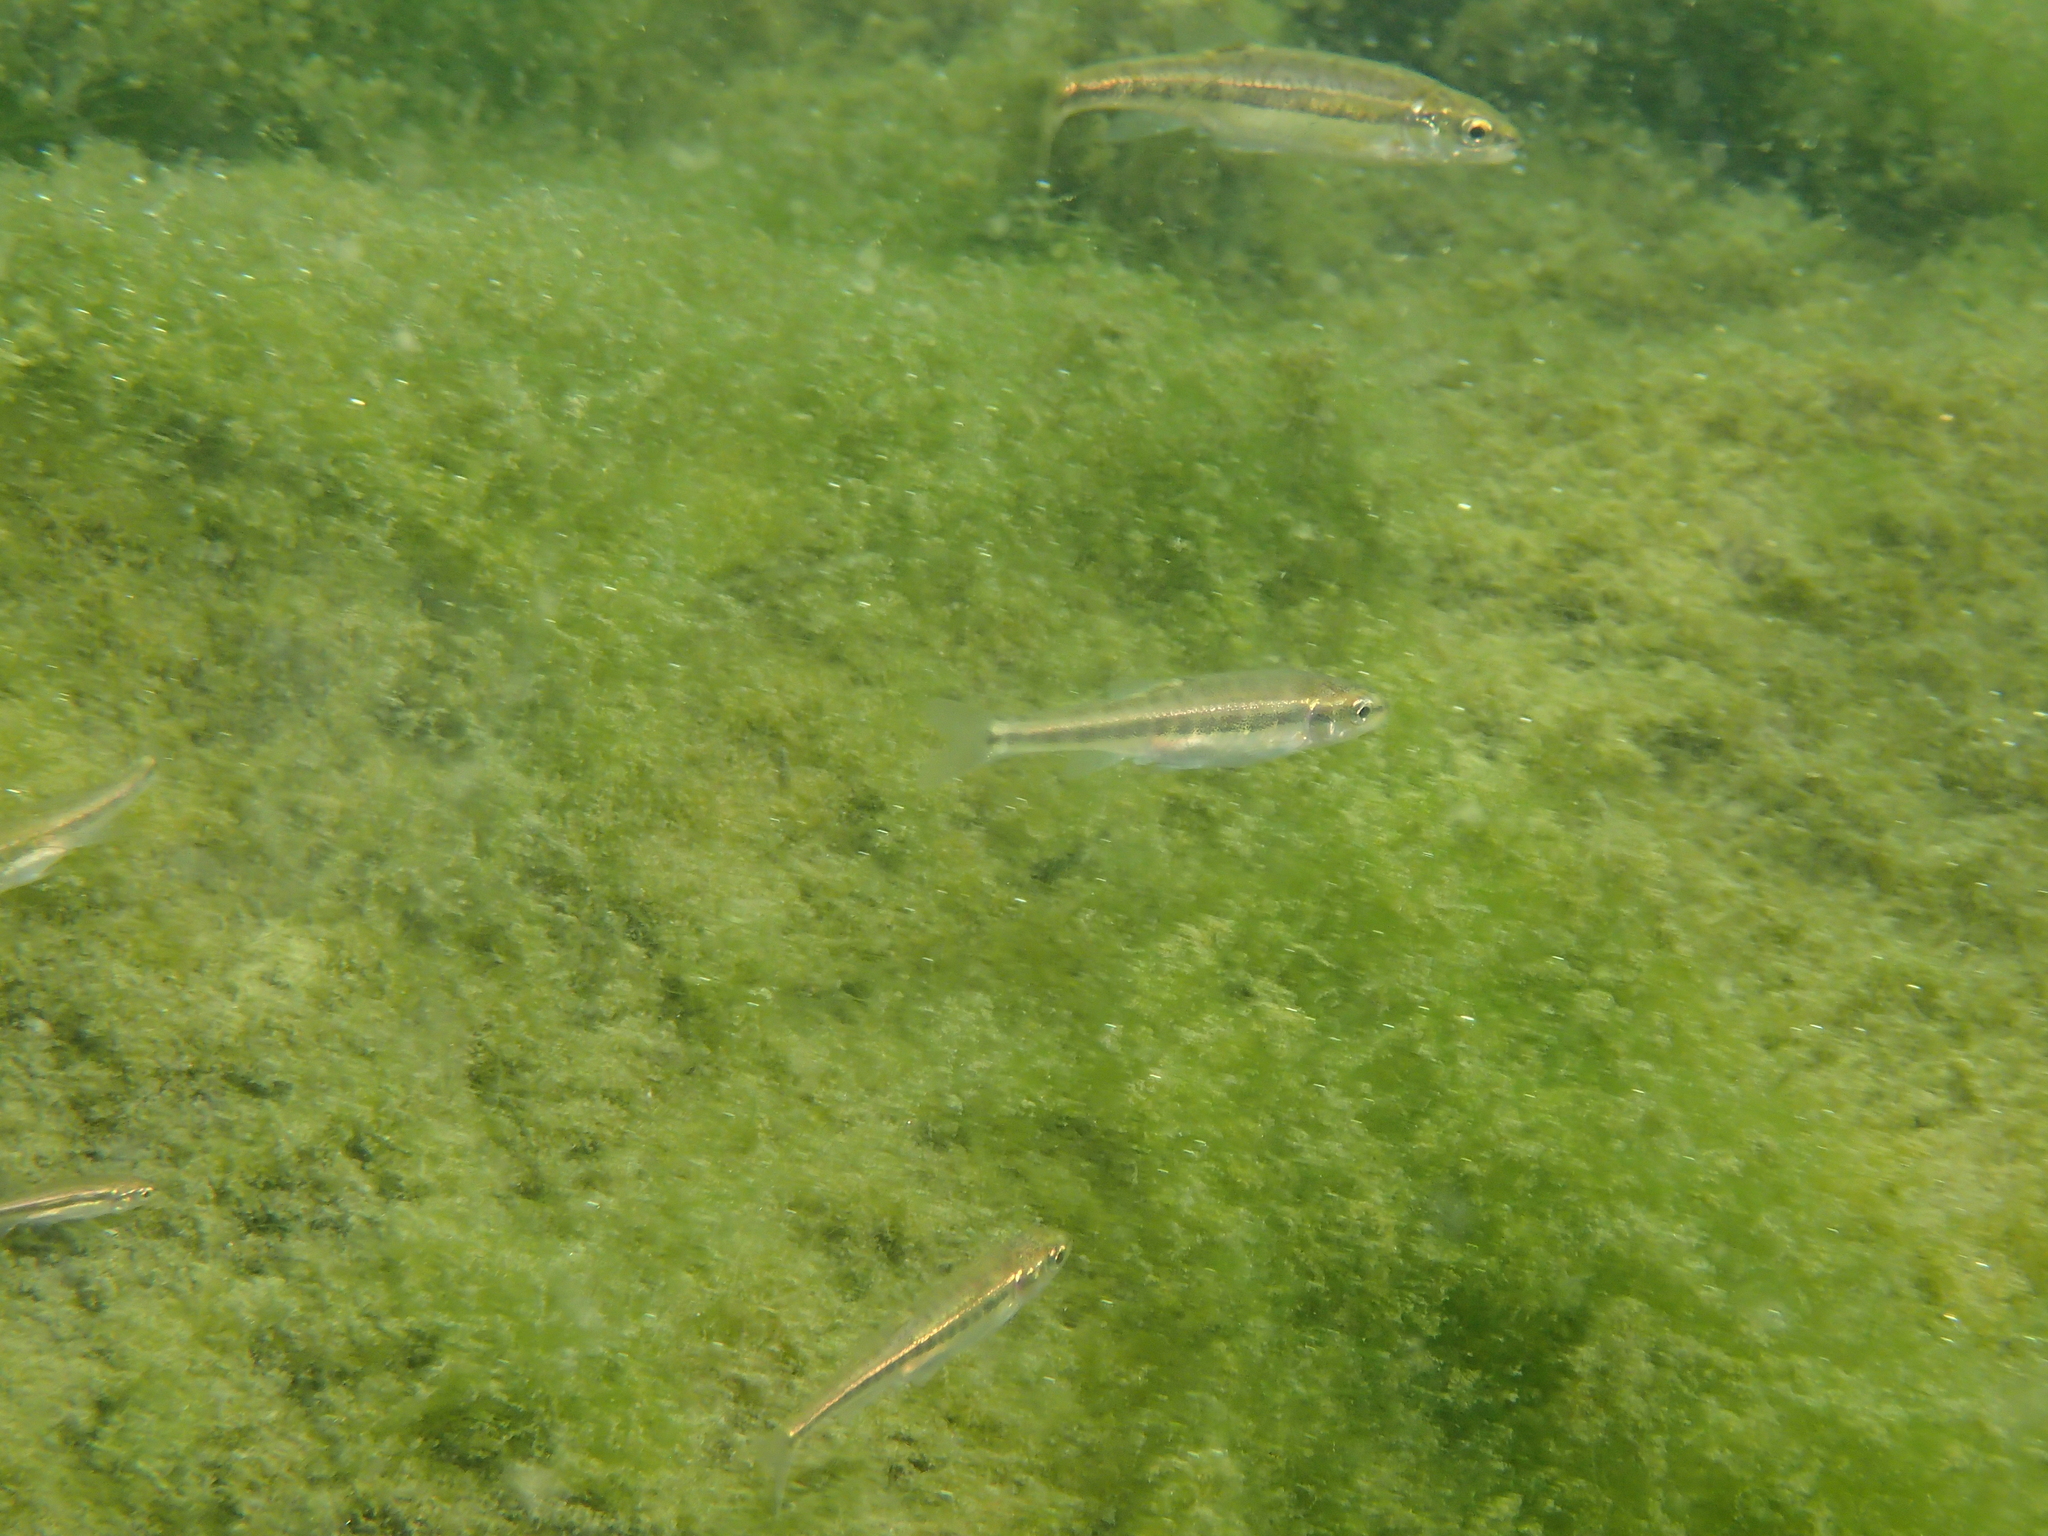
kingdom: Animalia
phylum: Chordata
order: Cypriniformes
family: Cyprinidae
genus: Phoxinus
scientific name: Phoxinus septimaniae
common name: Languedoc minnow
